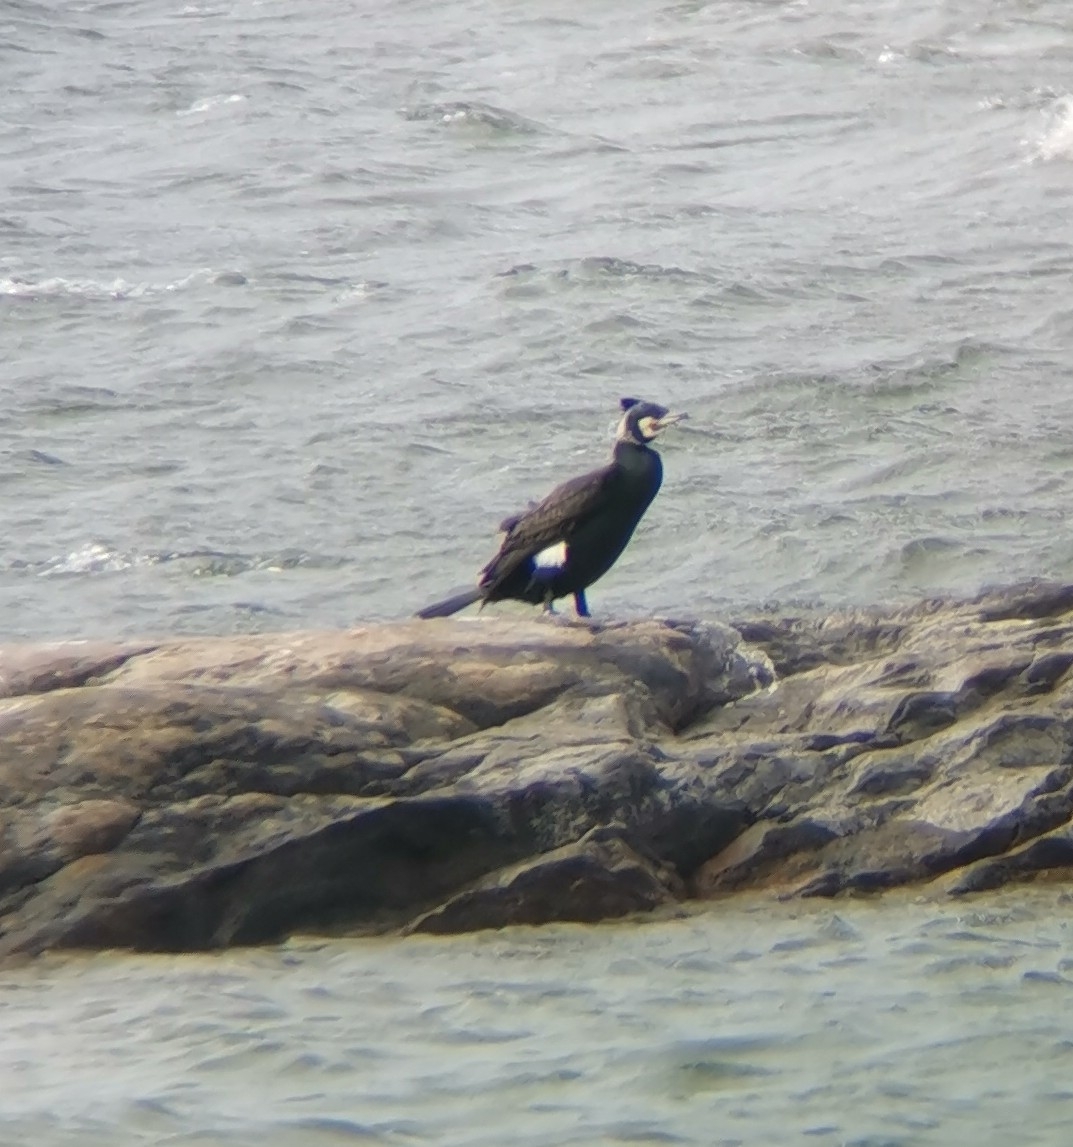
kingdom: Animalia
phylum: Chordata
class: Aves
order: Suliformes
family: Phalacrocoracidae
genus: Phalacrocorax
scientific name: Phalacrocorax carbo
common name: Great cormorant
